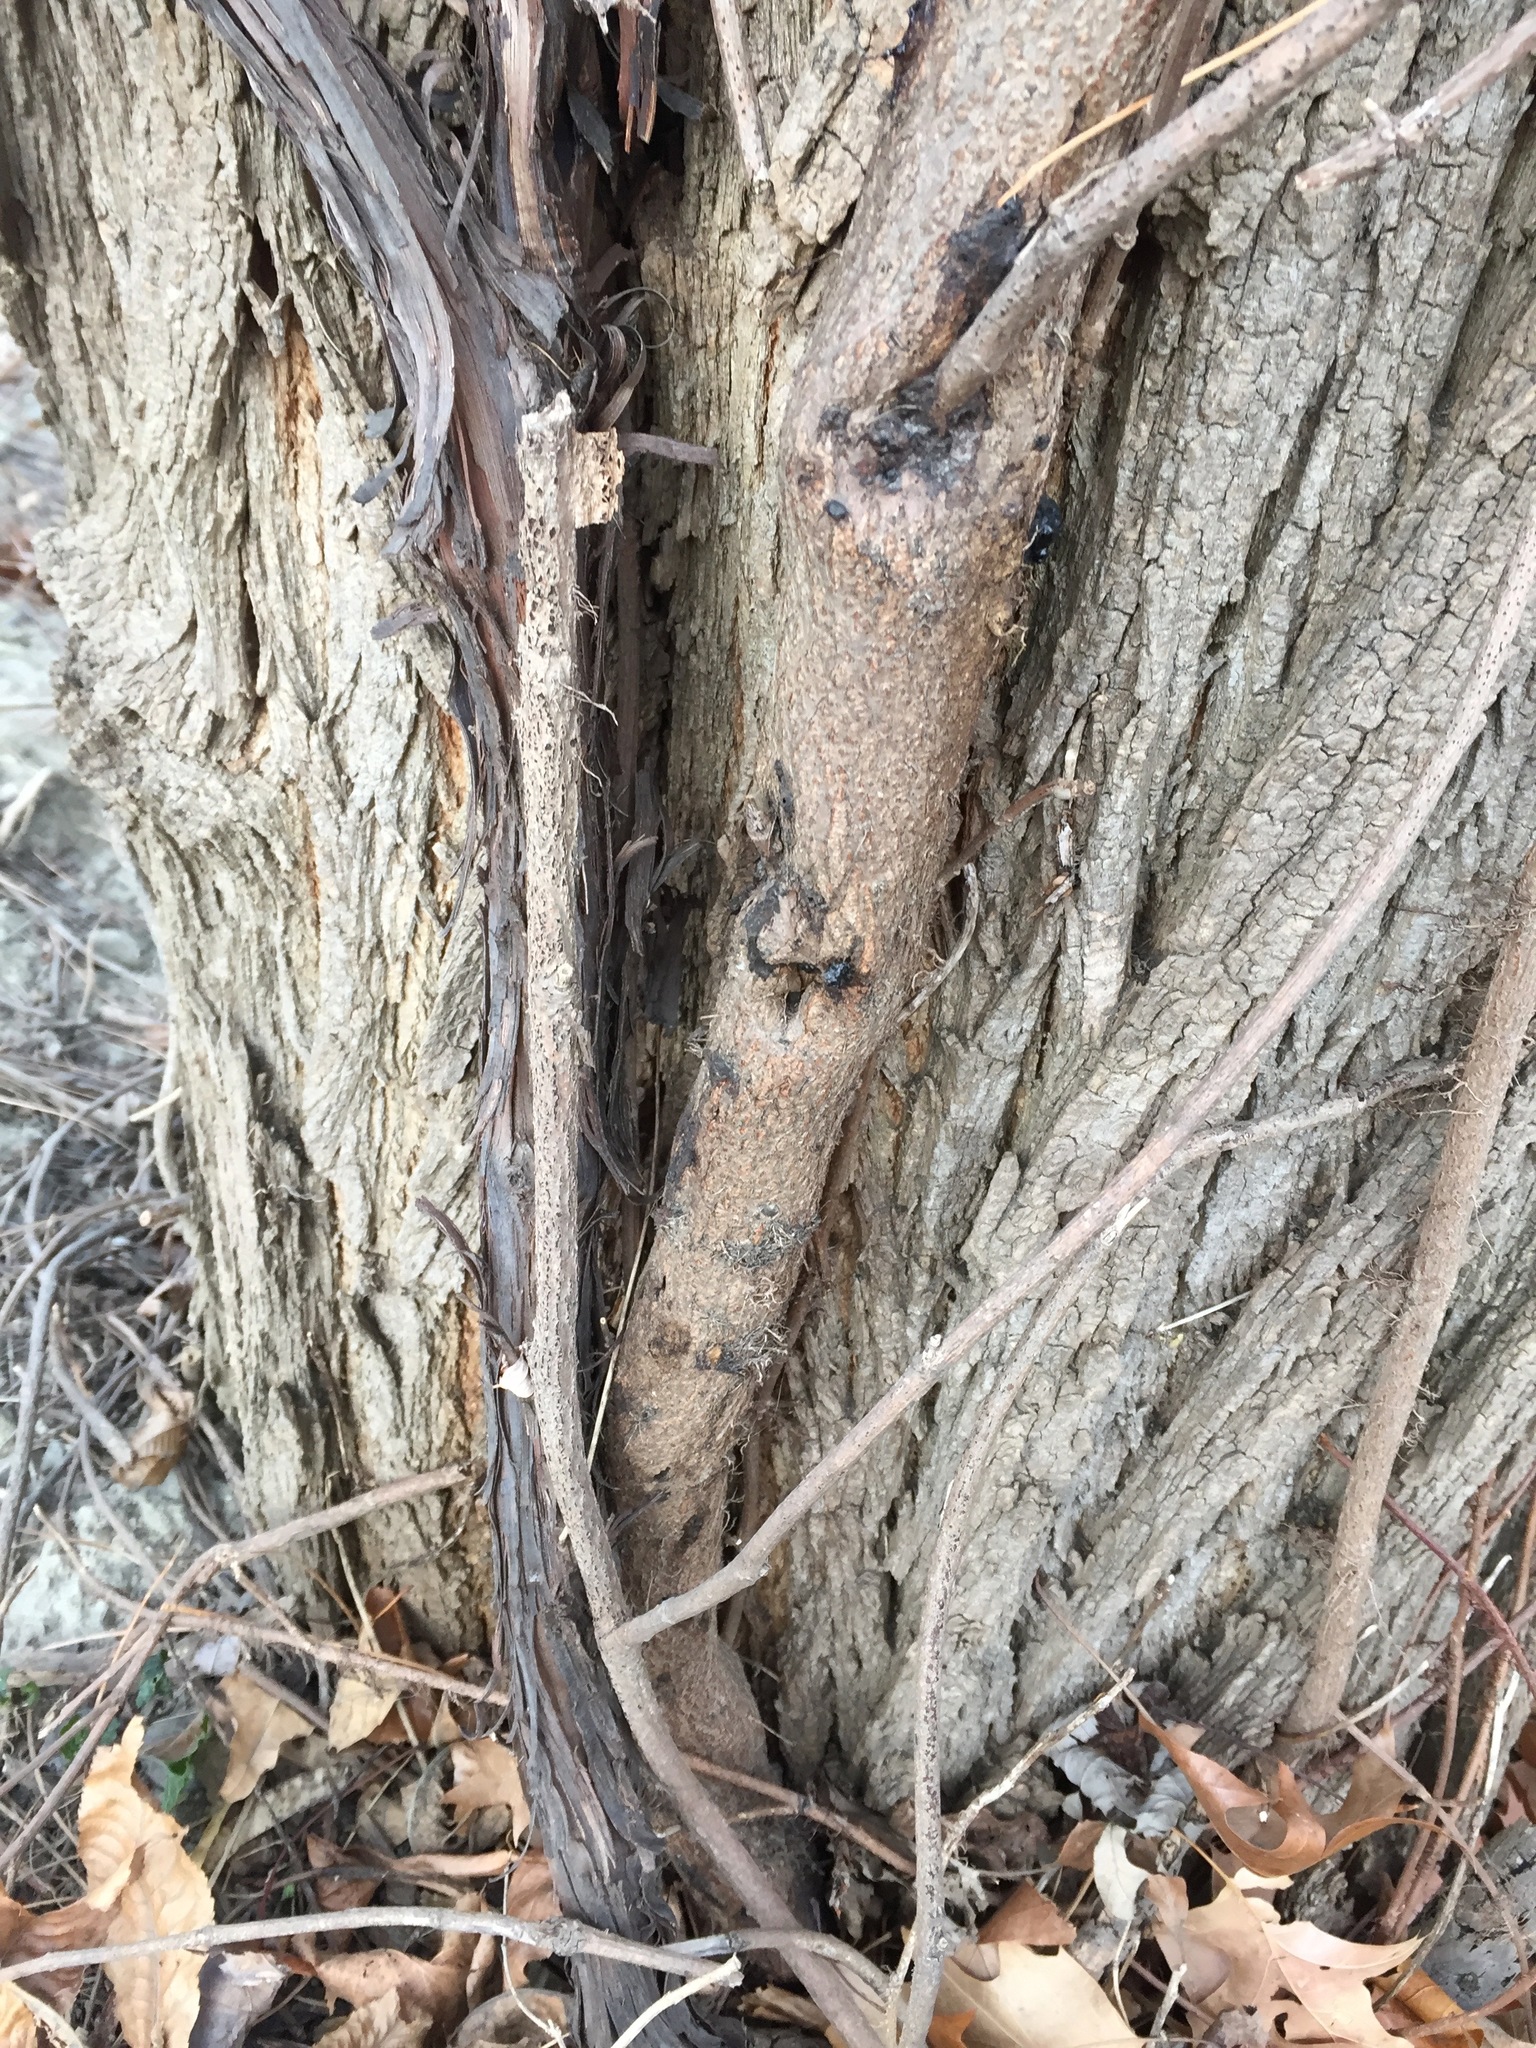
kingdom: Plantae
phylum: Tracheophyta
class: Magnoliopsida
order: Sapindales
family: Anacardiaceae
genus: Toxicodendron
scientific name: Toxicodendron radicans
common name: Poison ivy
